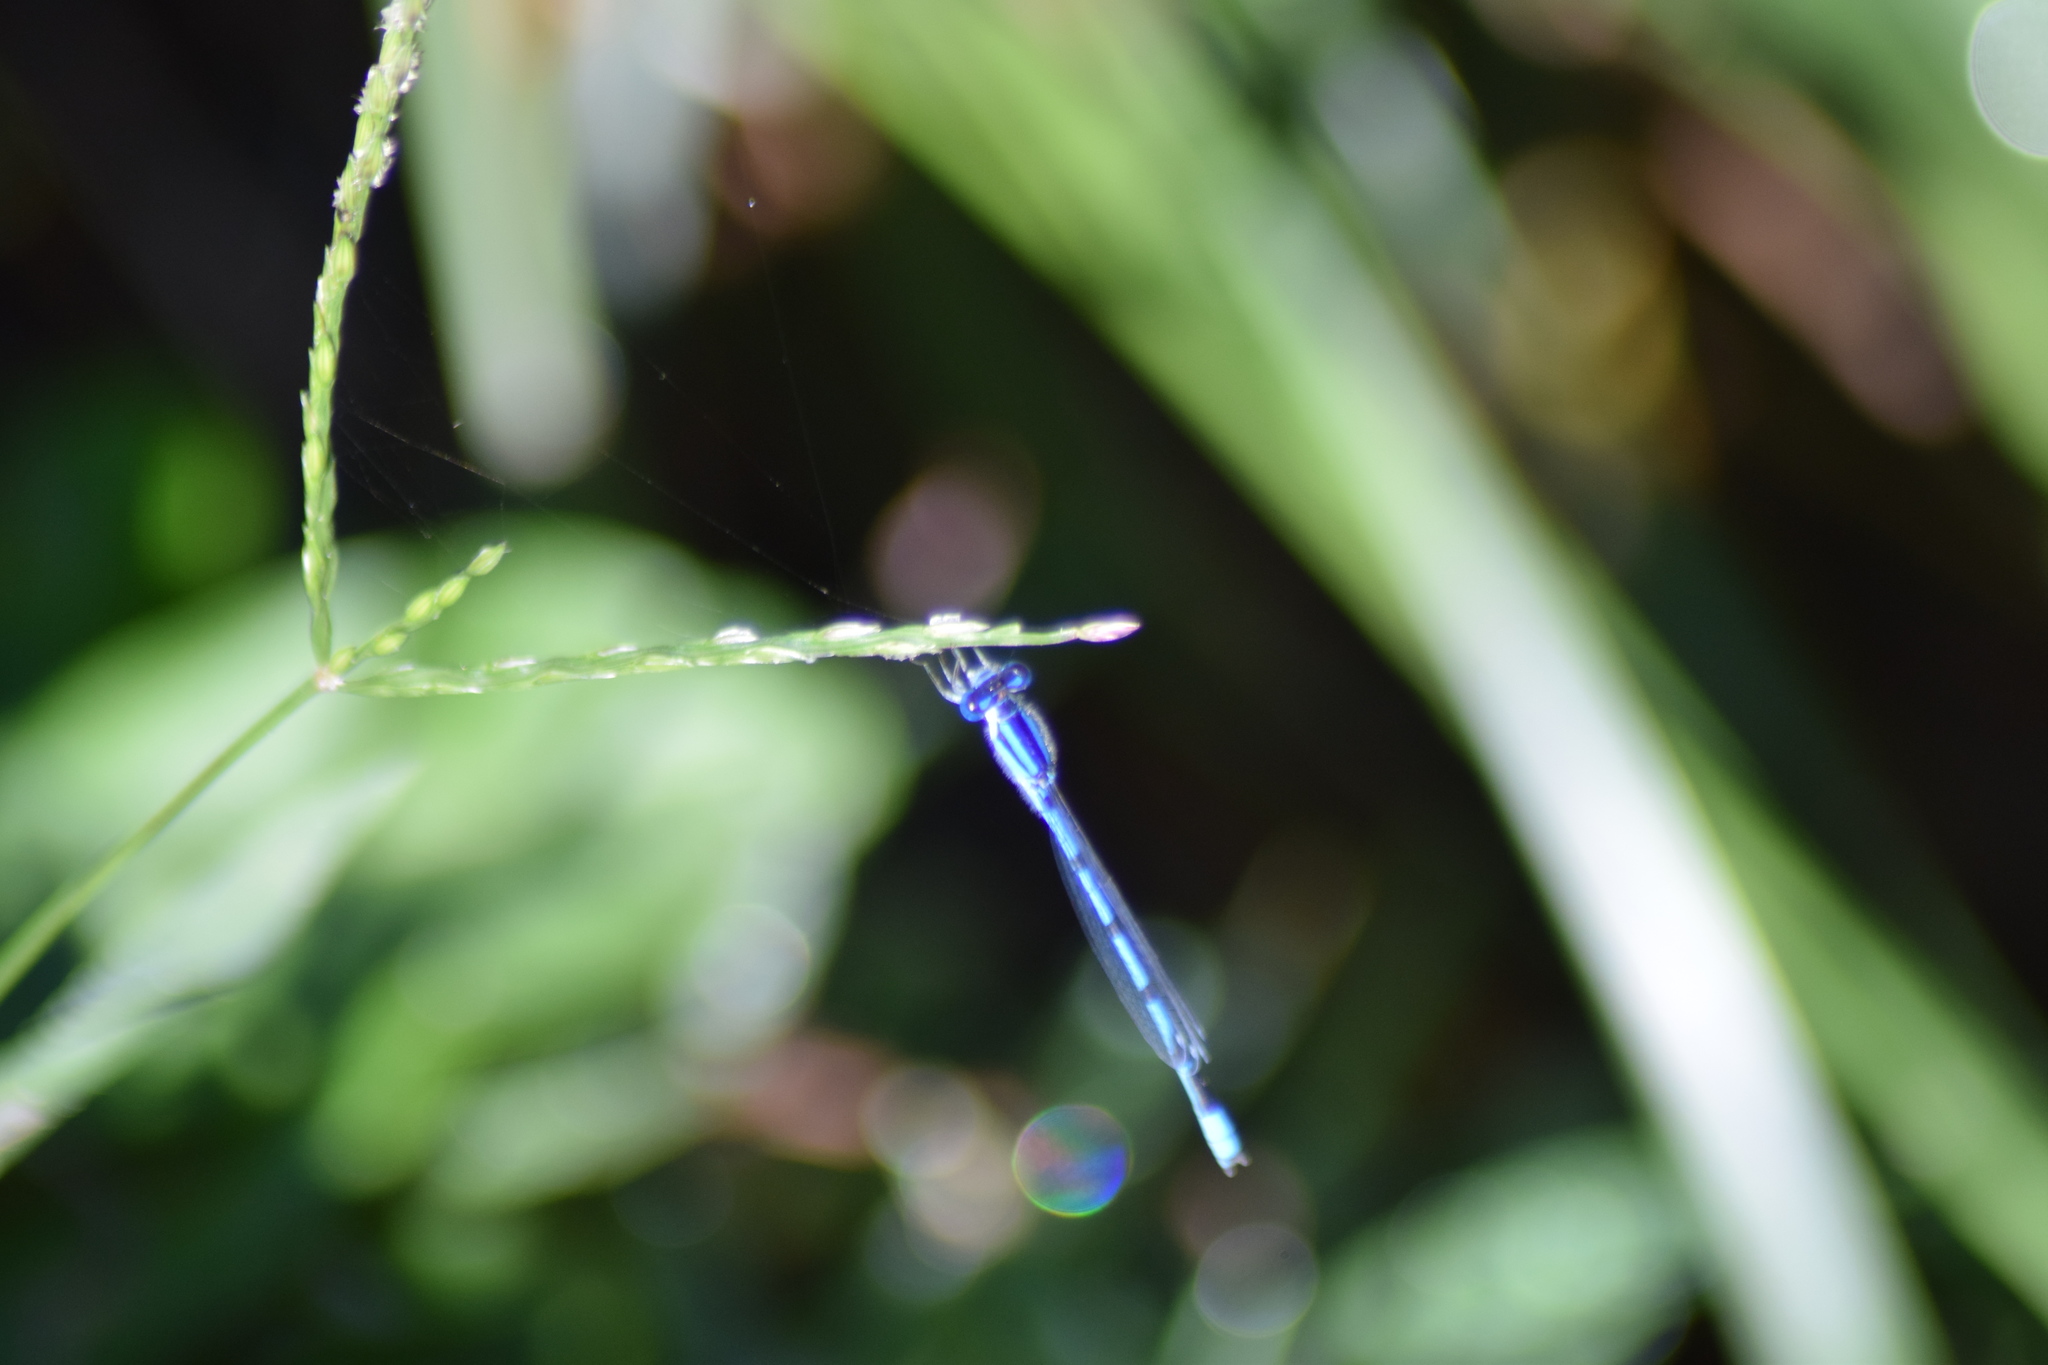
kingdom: Animalia
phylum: Arthropoda
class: Insecta
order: Odonata
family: Coenagrionidae
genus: Enallagma
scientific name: Enallagma civile
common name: Damselfly
